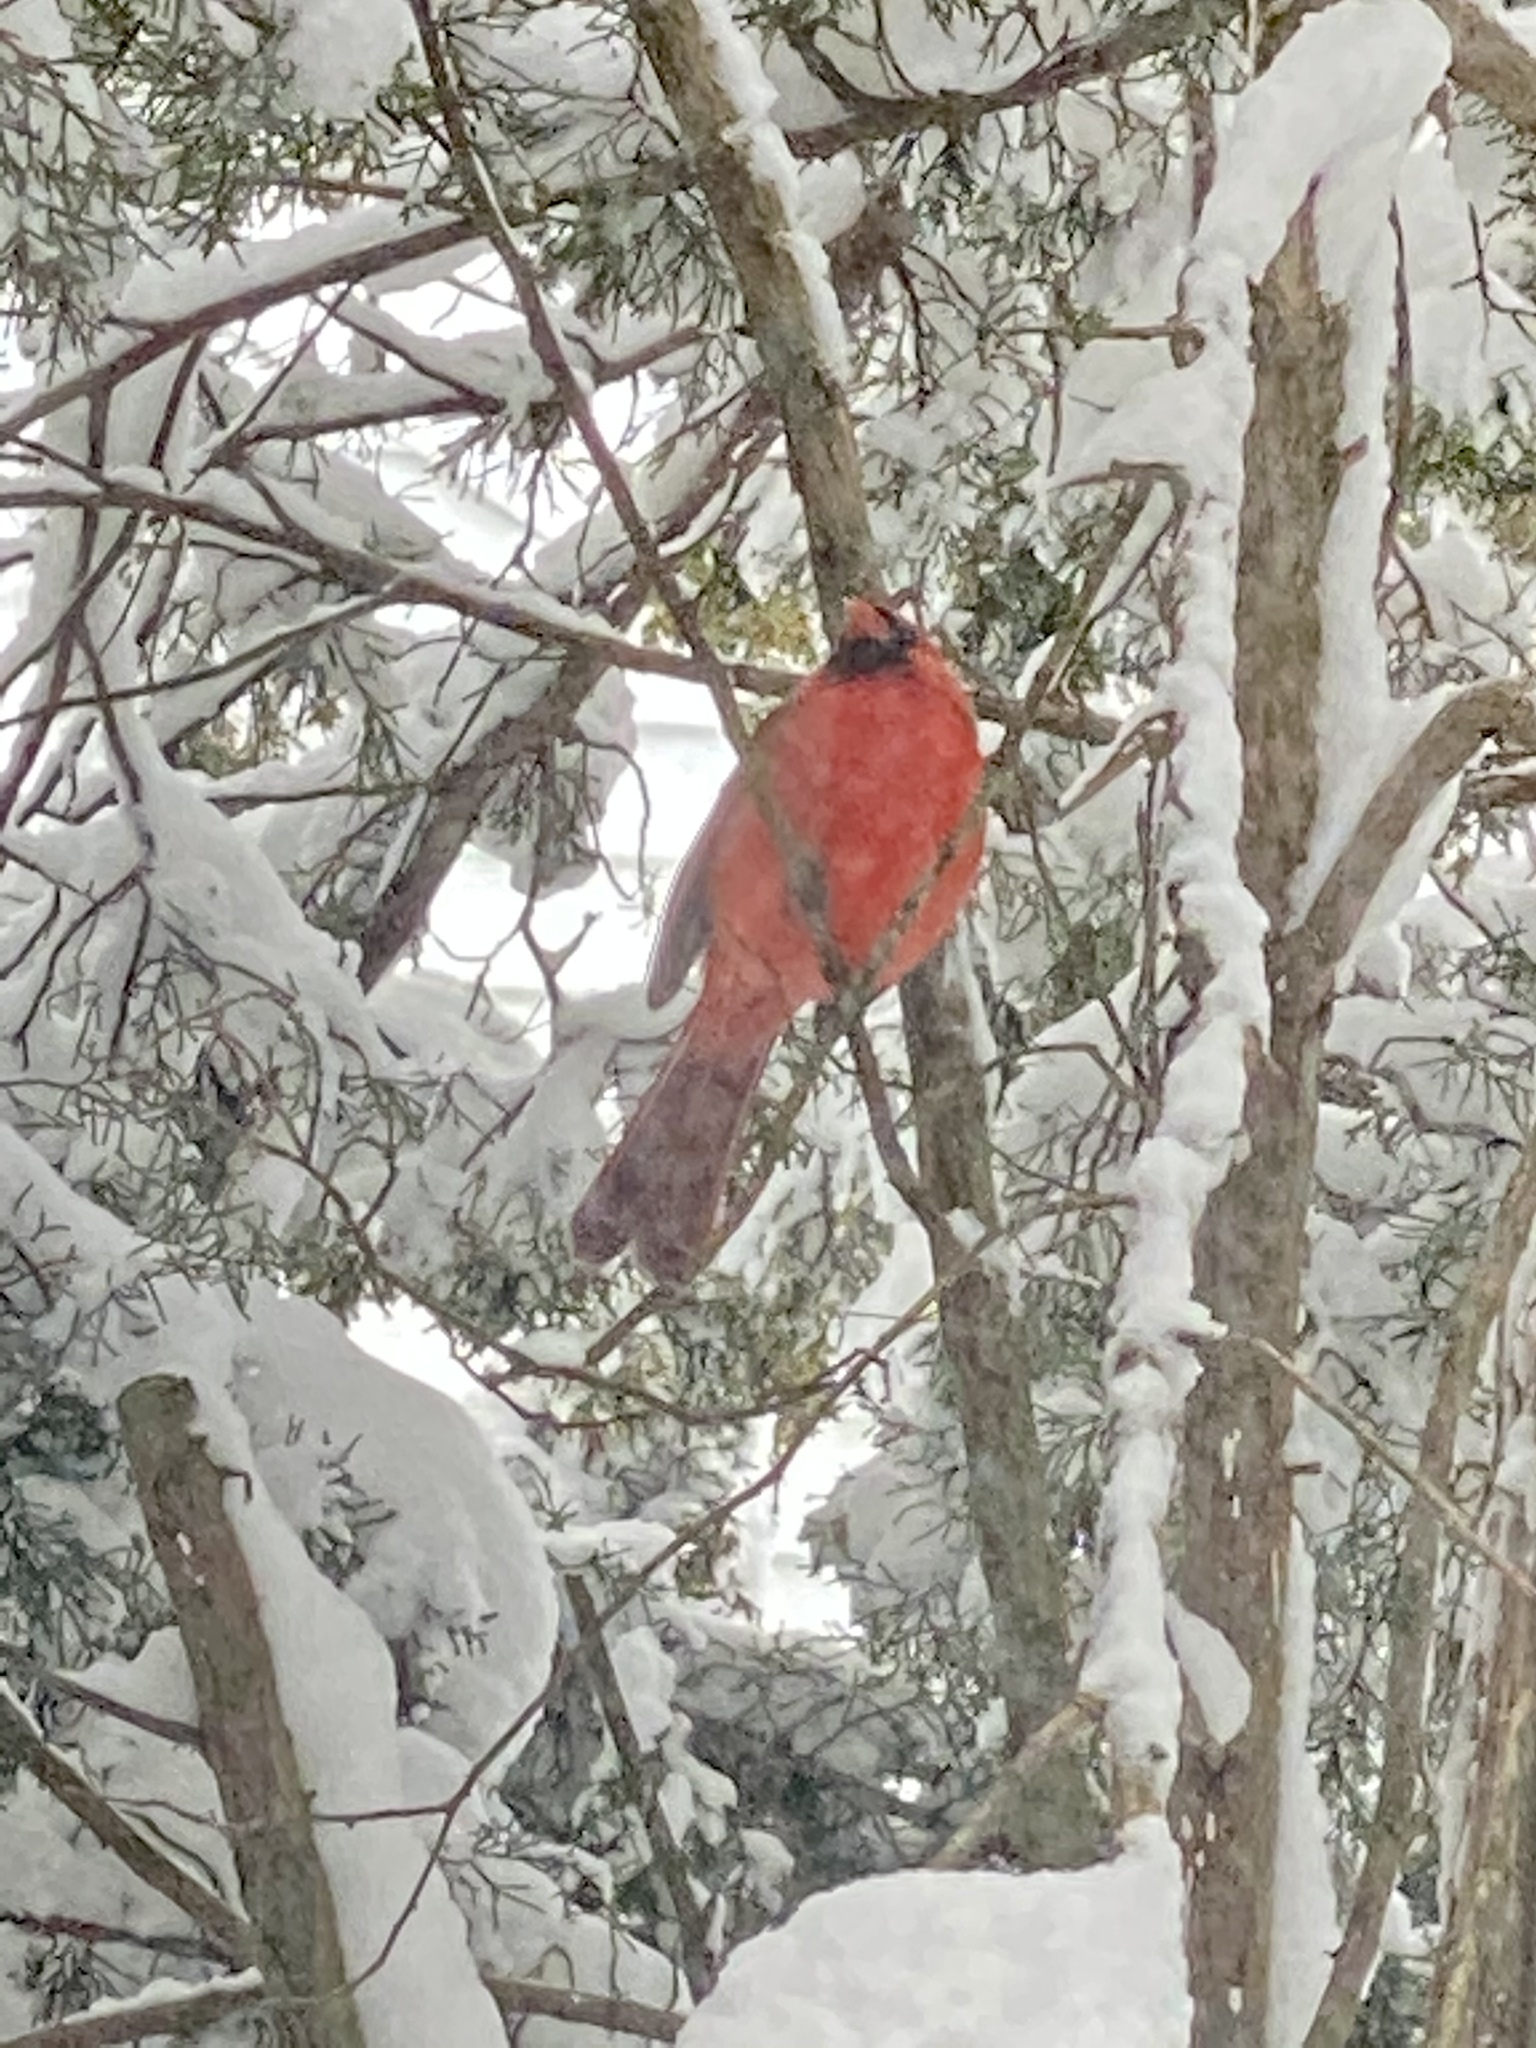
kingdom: Animalia
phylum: Chordata
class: Aves
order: Passeriformes
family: Cardinalidae
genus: Cardinalis
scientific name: Cardinalis cardinalis
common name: Northern cardinal
